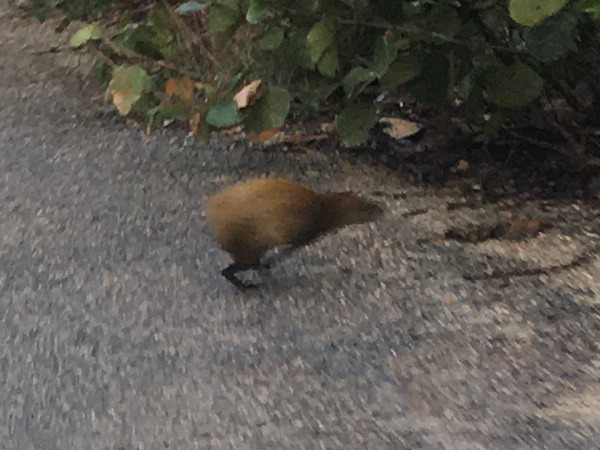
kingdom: Animalia
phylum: Chordata
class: Mammalia
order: Rodentia
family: Dasyproctidae
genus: Dasyprocta
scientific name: Dasyprocta punctata
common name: Central american agouti
